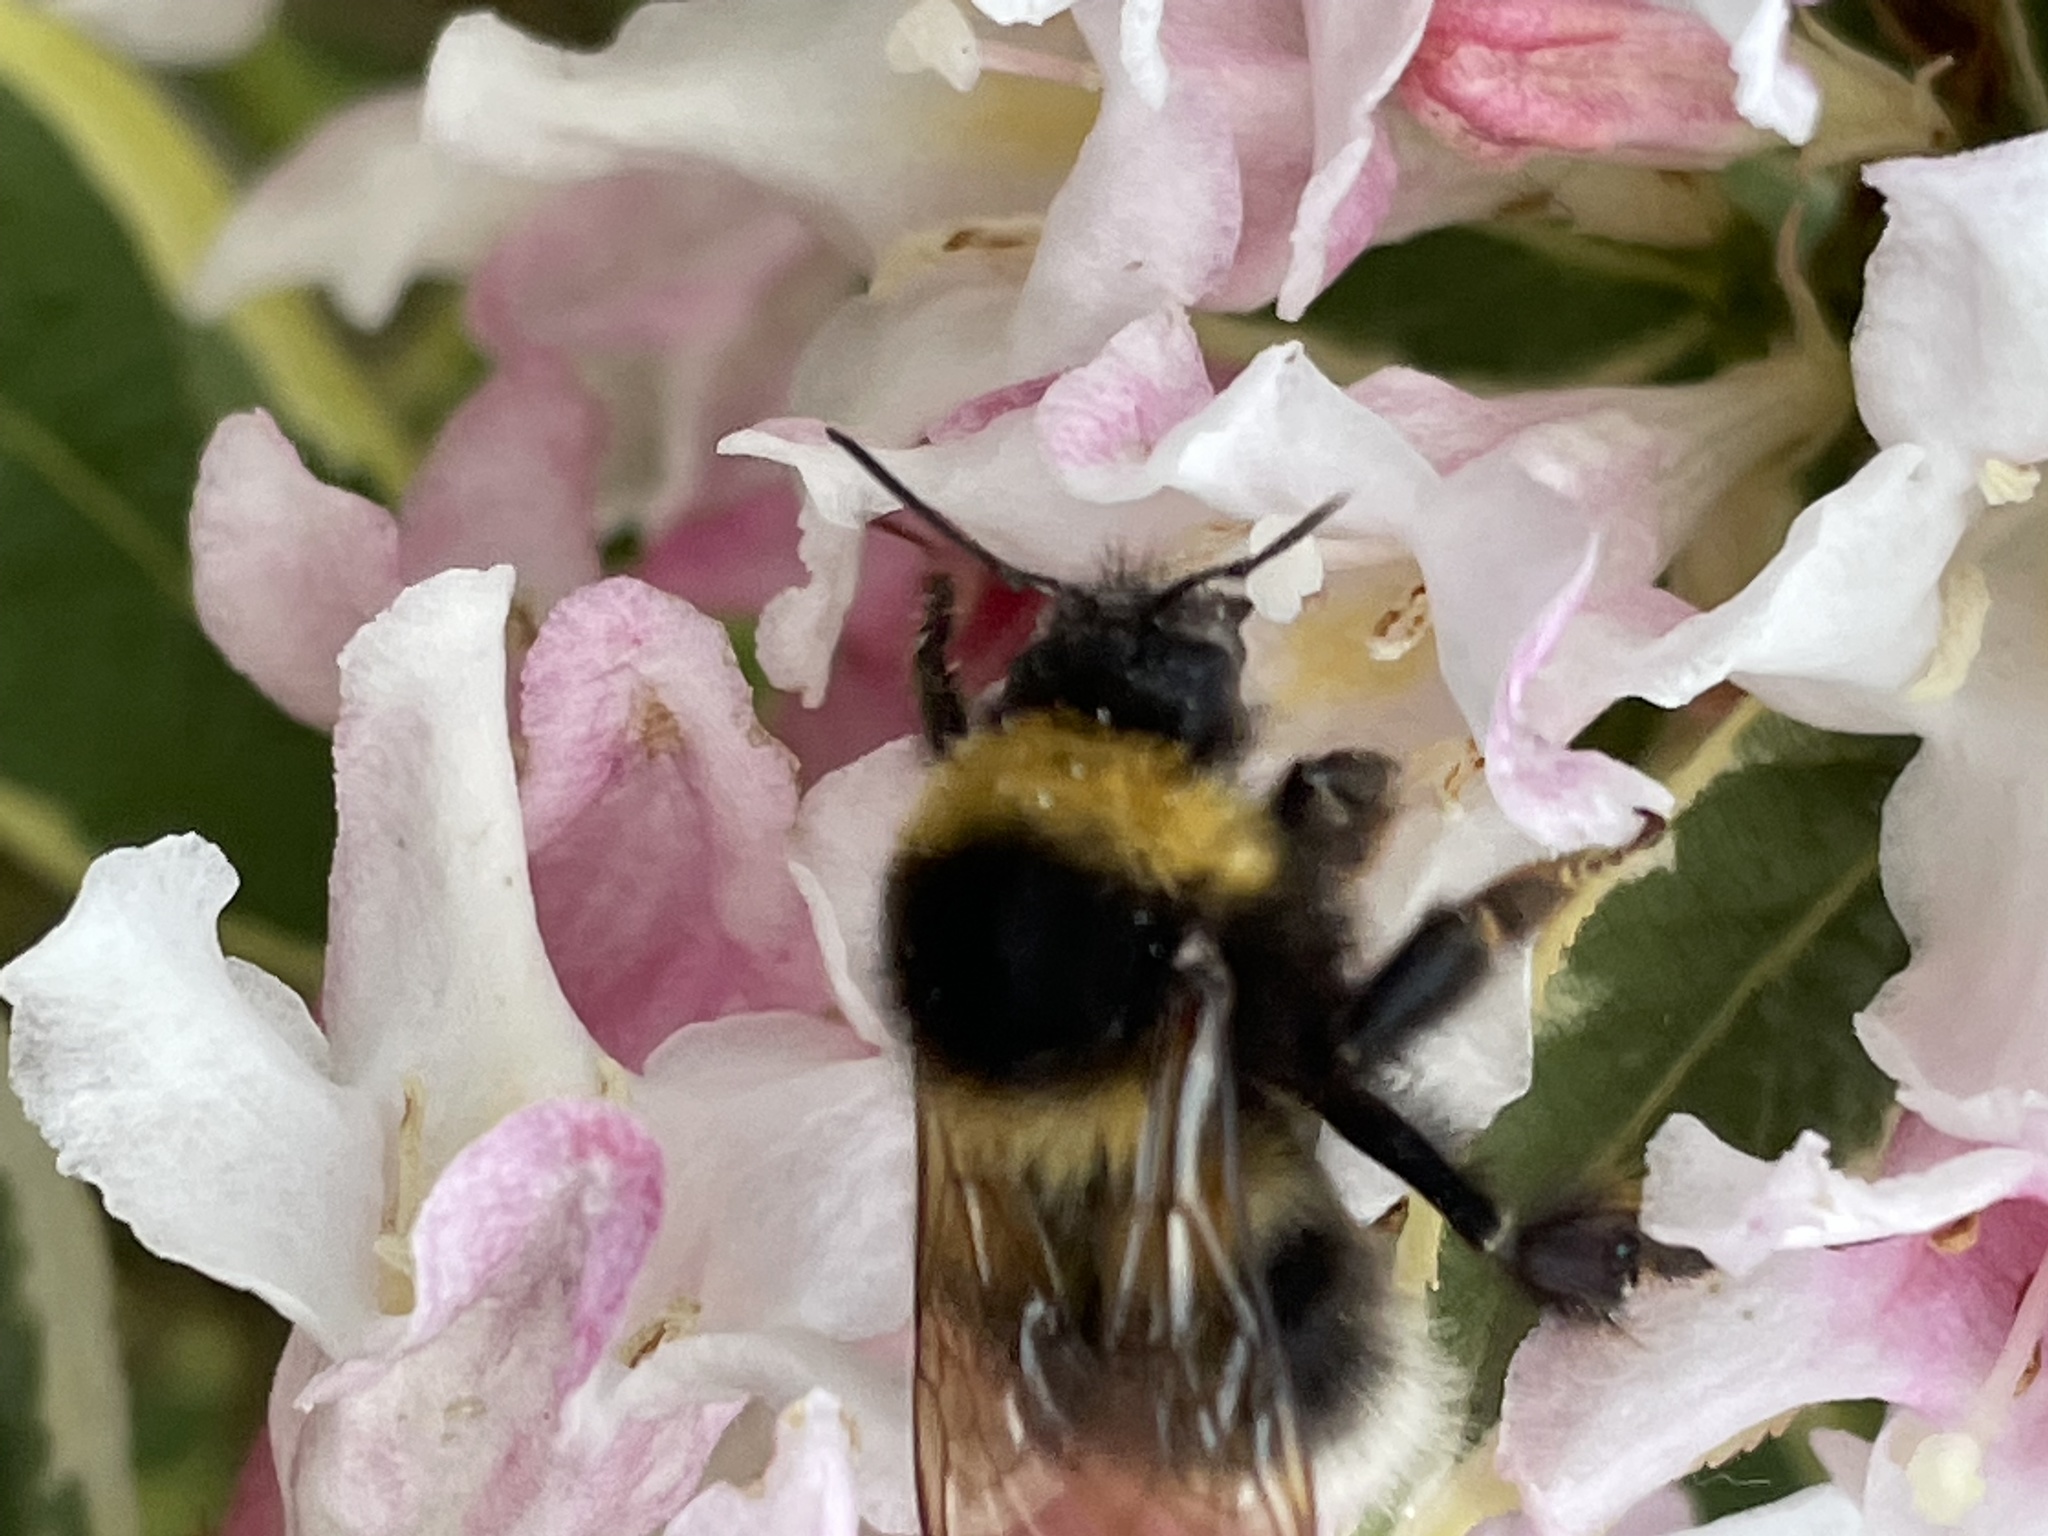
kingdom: Animalia
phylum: Arthropoda
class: Insecta
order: Hymenoptera
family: Apidae
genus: Bombus
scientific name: Bombus hortorum
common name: Garden bumblebee
